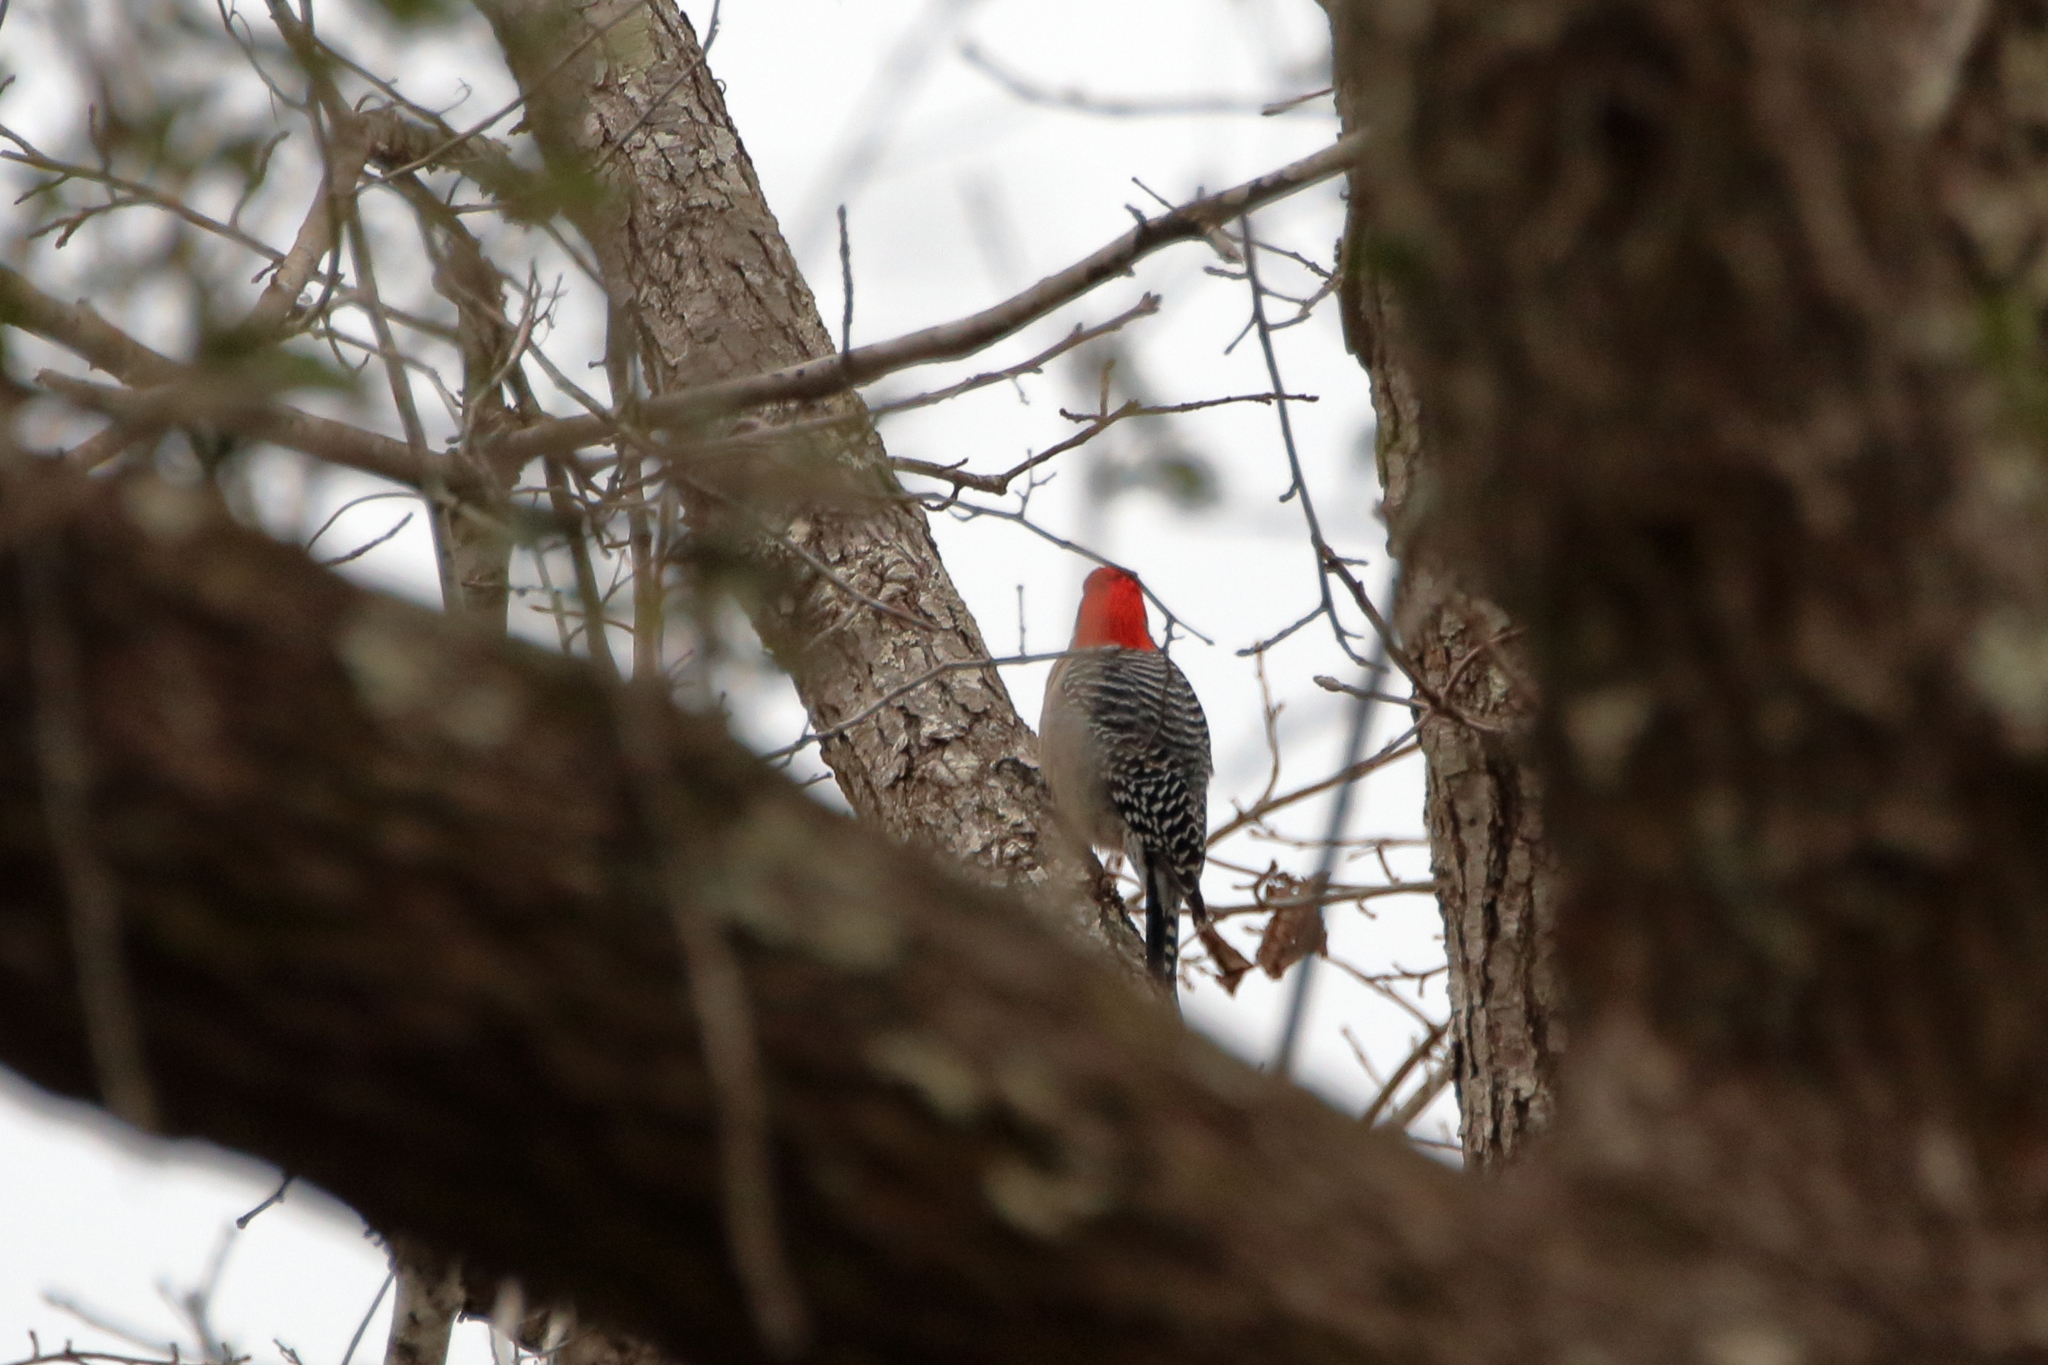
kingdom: Animalia
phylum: Chordata
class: Aves
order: Piciformes
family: Picidae
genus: Melanerpes
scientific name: Melanerpes carolinus
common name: Red-bellied woodpecker
